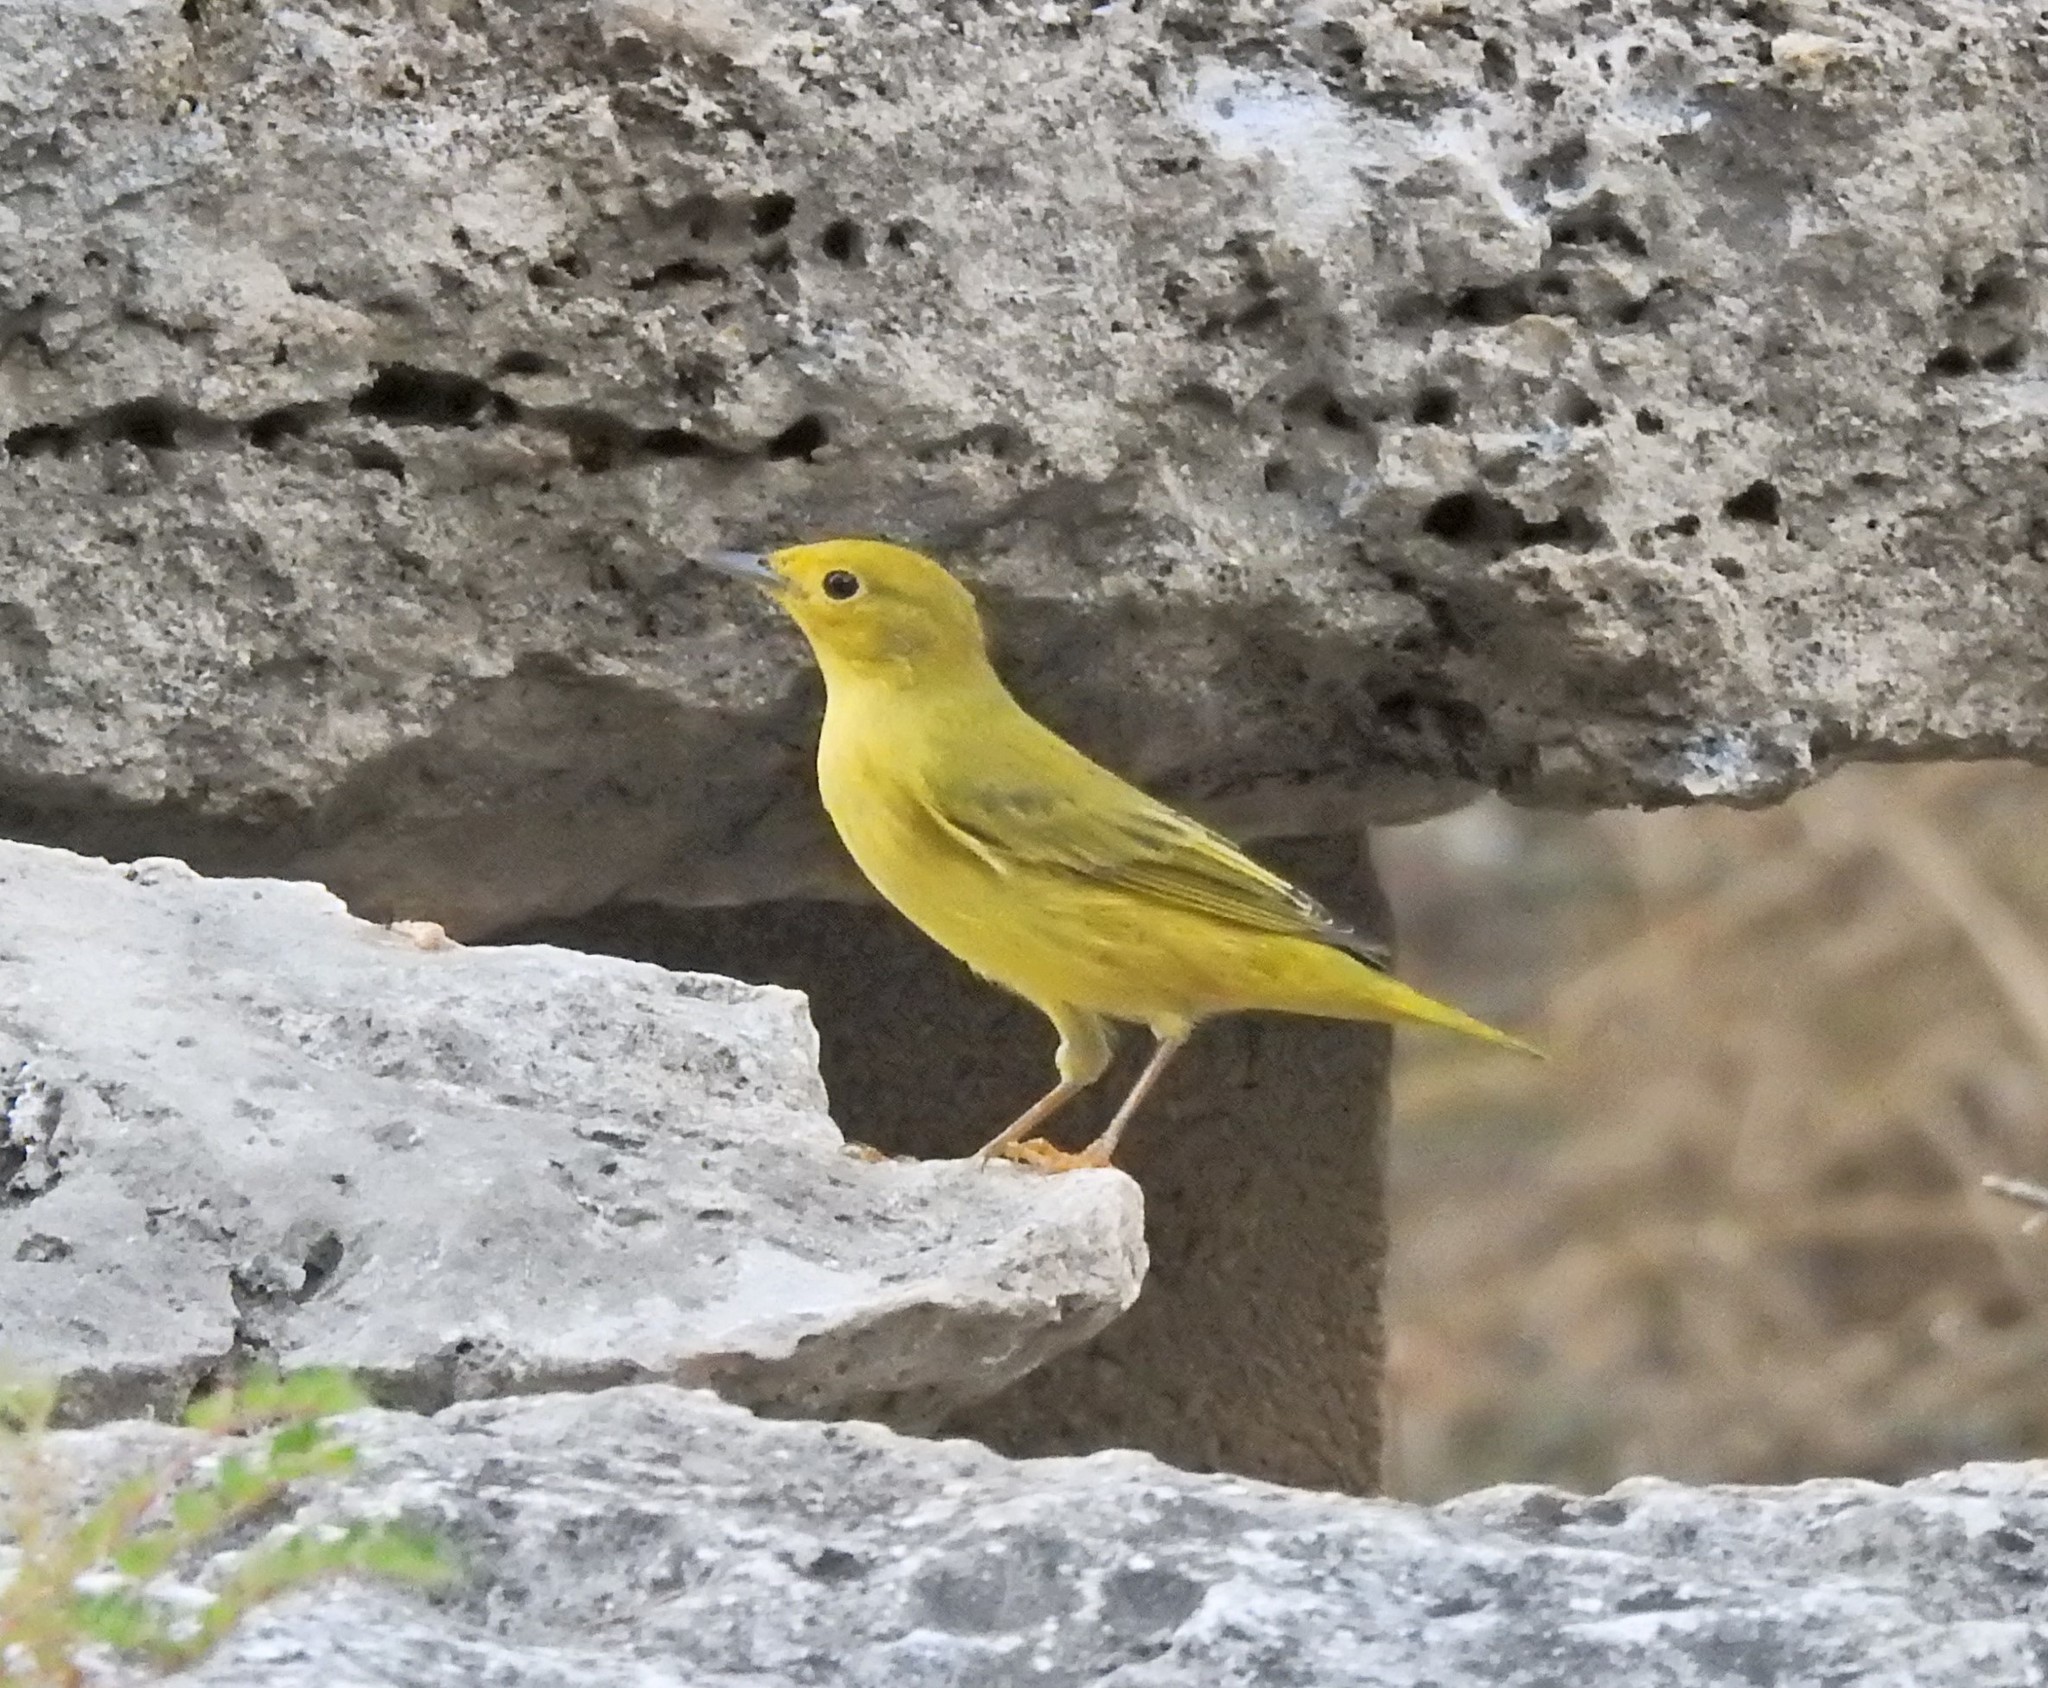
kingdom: Animalia
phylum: Chordata
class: Aves
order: Passeriformes
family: Parulidae
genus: Setophaga
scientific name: Setophaga petechia
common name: Yellow warbler
